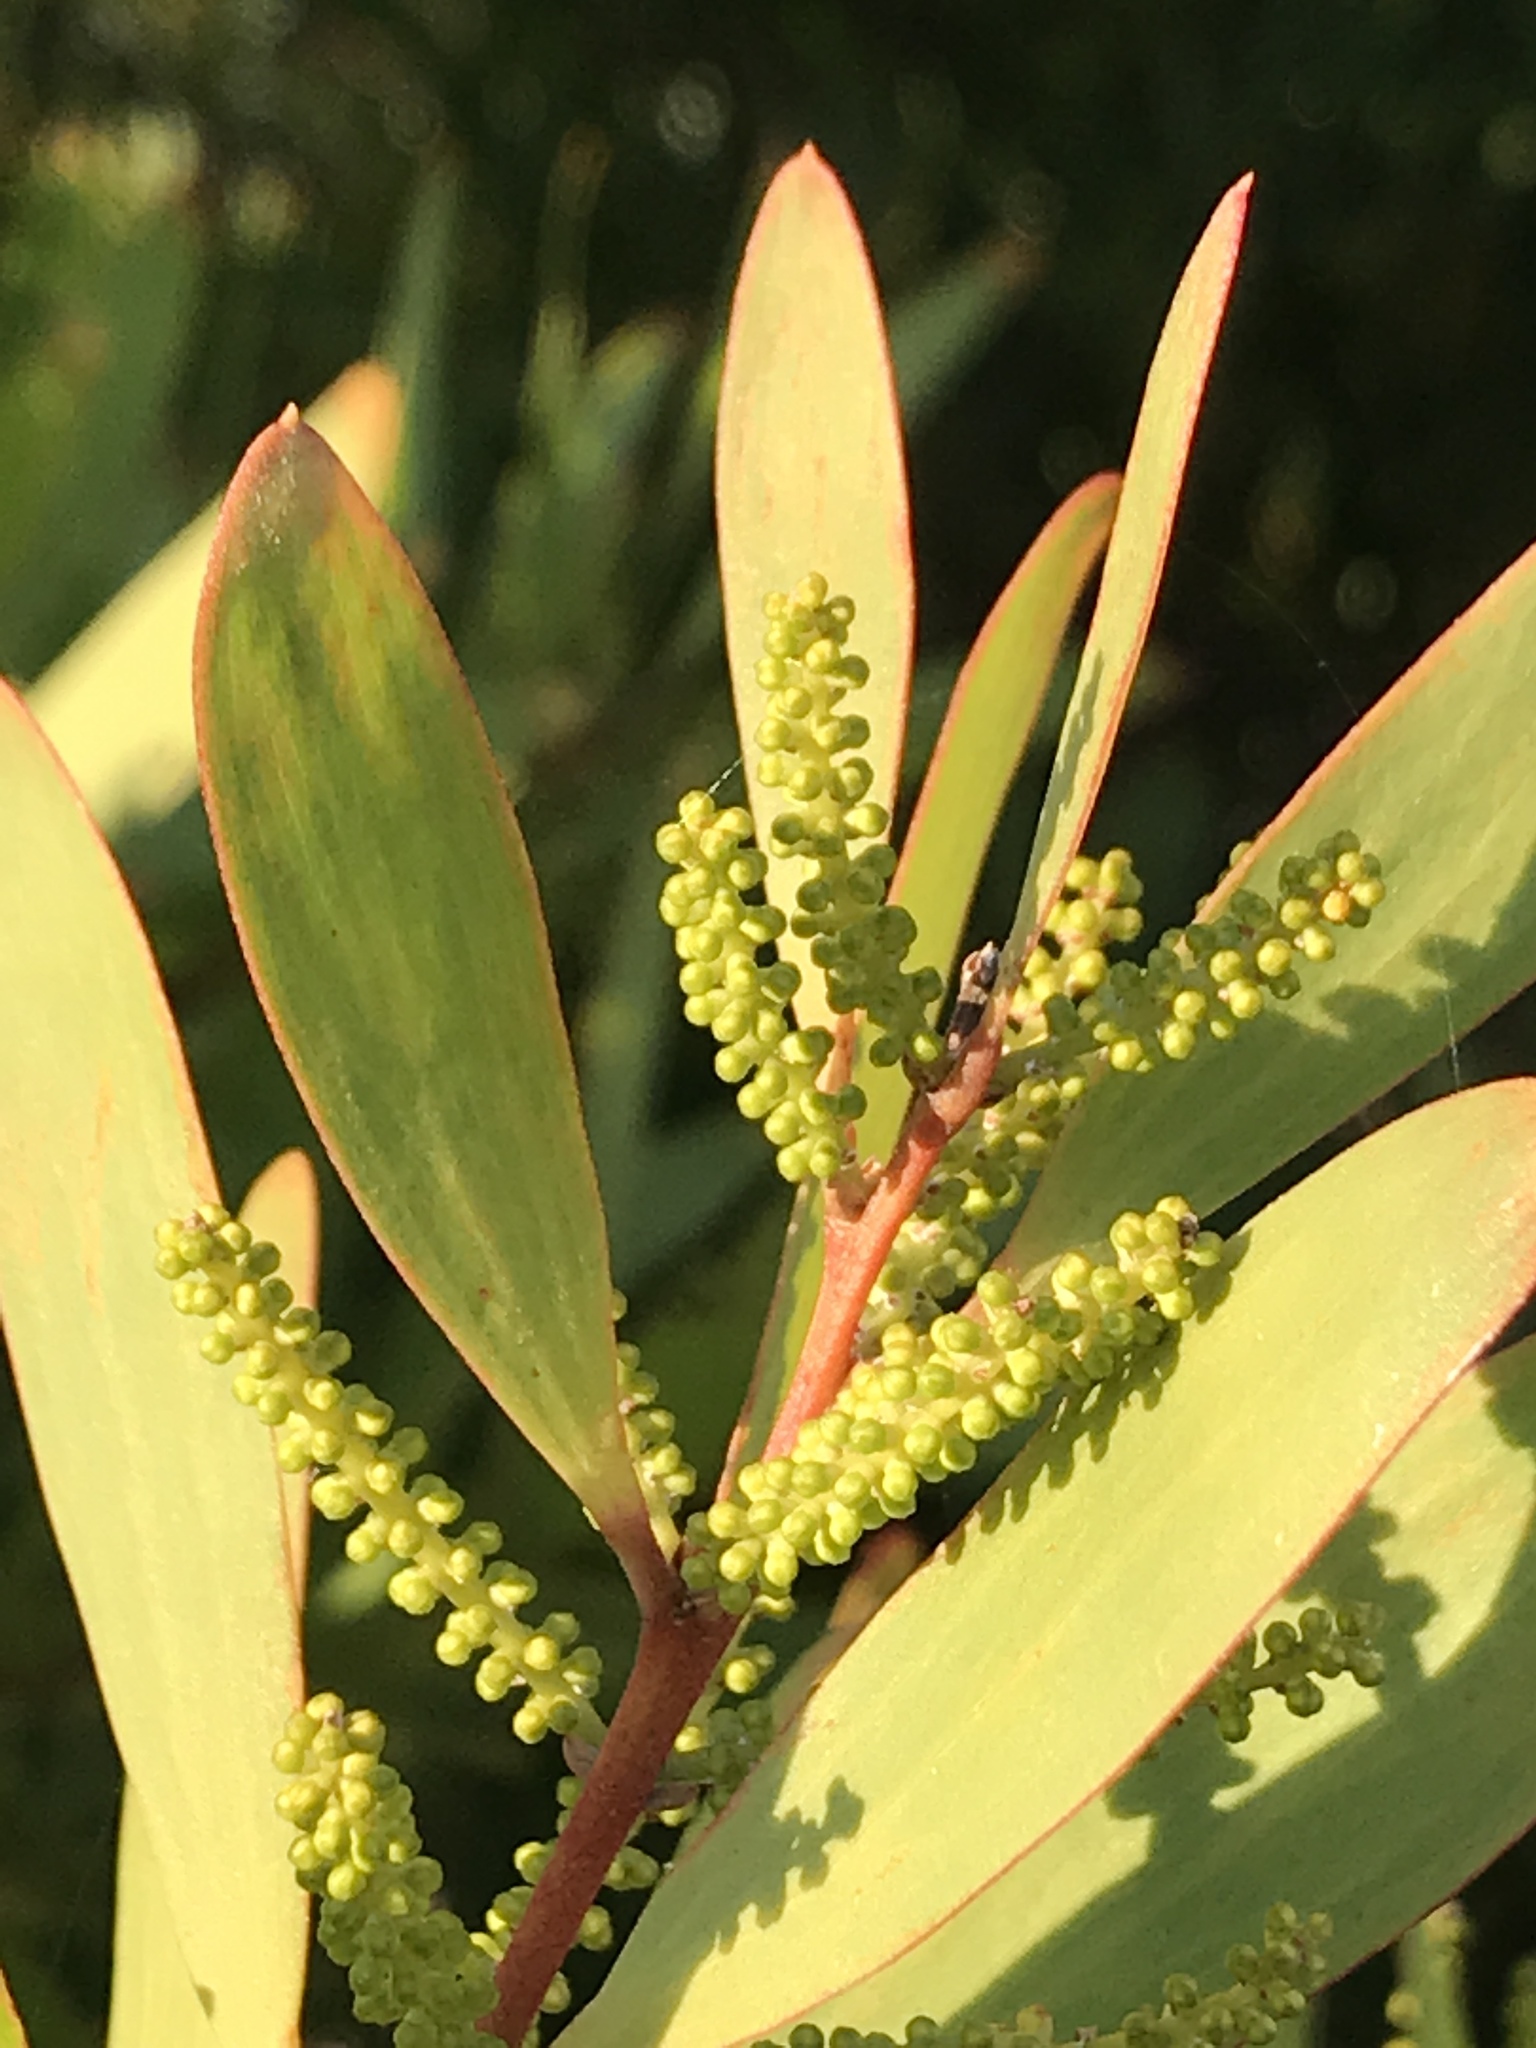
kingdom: Plantae
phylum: Tracheophyta
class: Magnoliopsida
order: Fabales
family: Fabaceae
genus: Acacia
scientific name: Acacia longifolia
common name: Sydney golden wattle
